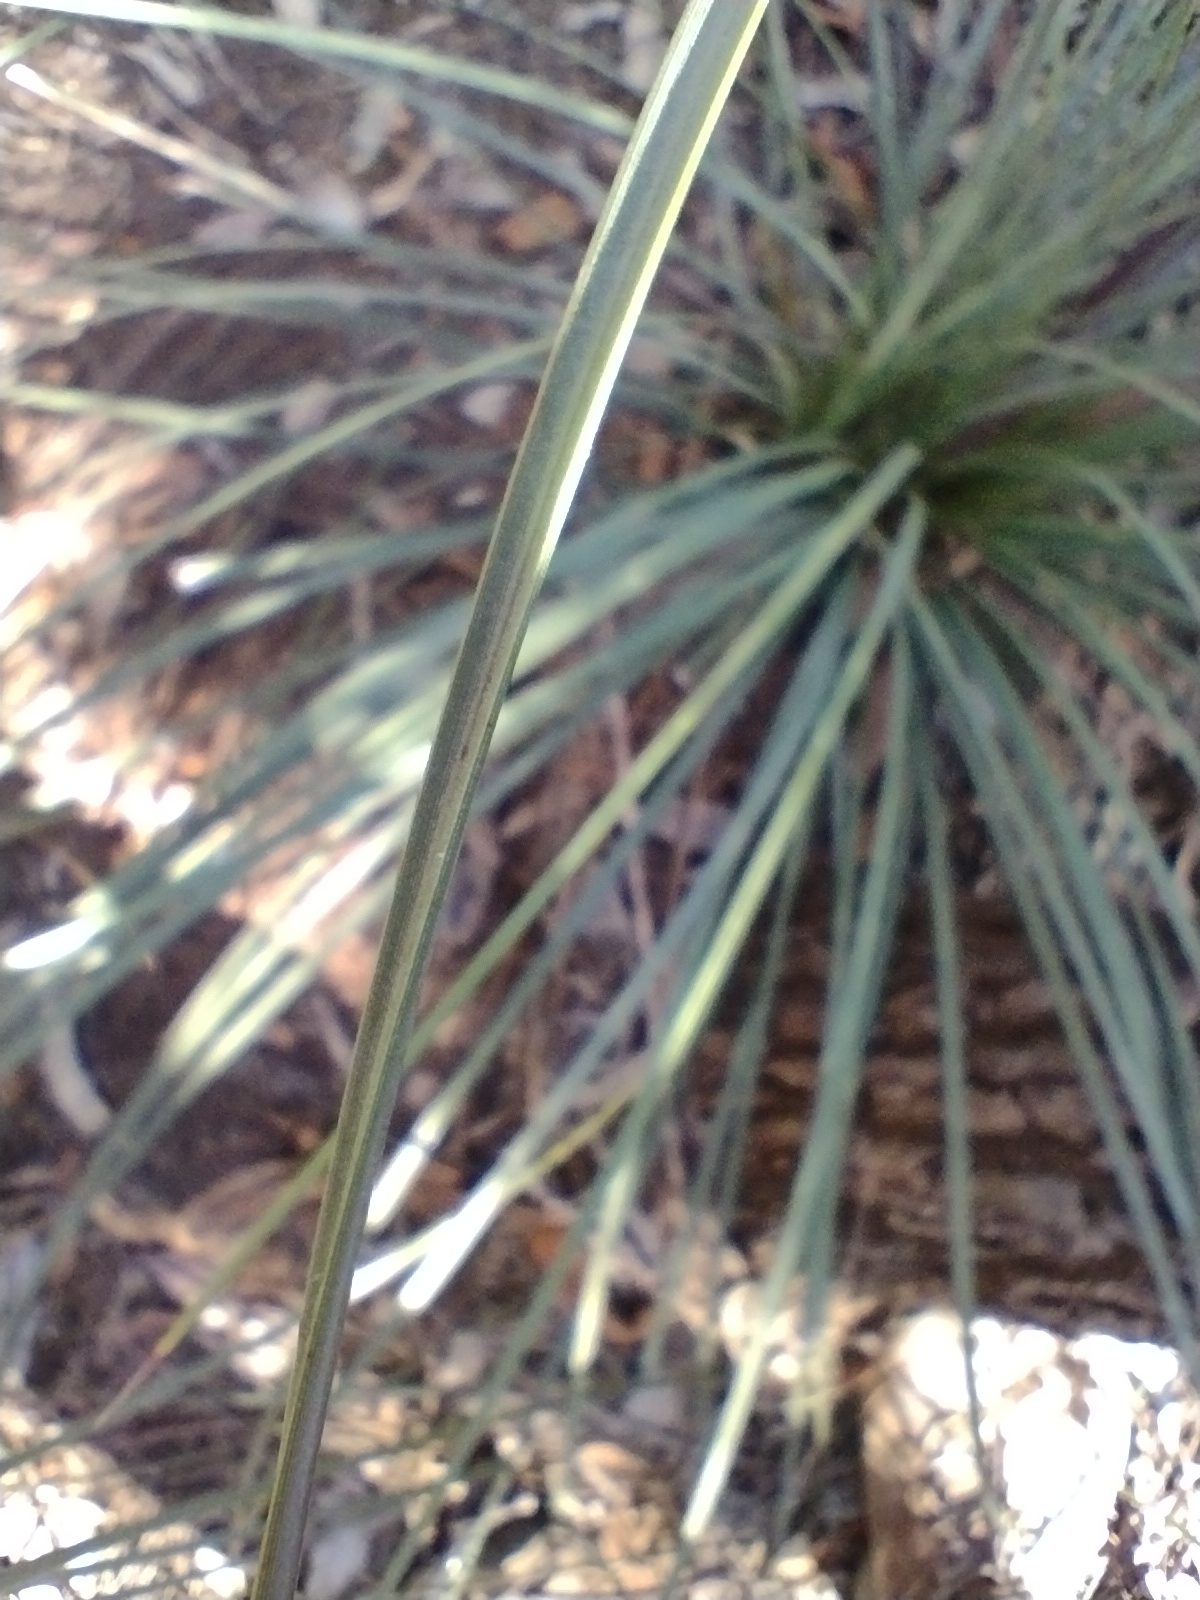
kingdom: Plantae
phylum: Tracheophyta
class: Liliopsida
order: Asparagales
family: Asphodelaceae
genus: Xanthorrhoea
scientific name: Xanthorrhoea concava
